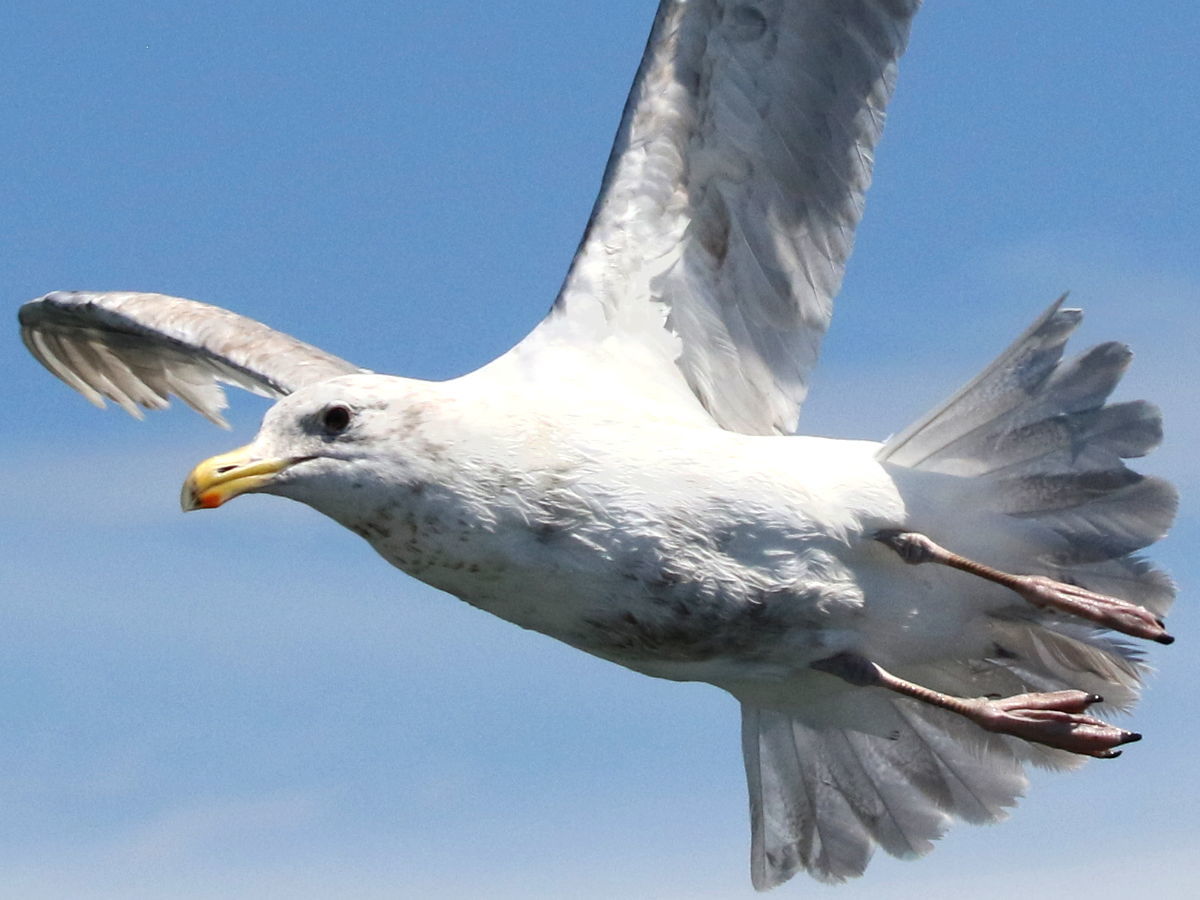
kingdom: Animalia
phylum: Chordata
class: Aves
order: Charadriiformes
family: Laridae
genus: Larus
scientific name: Larus
